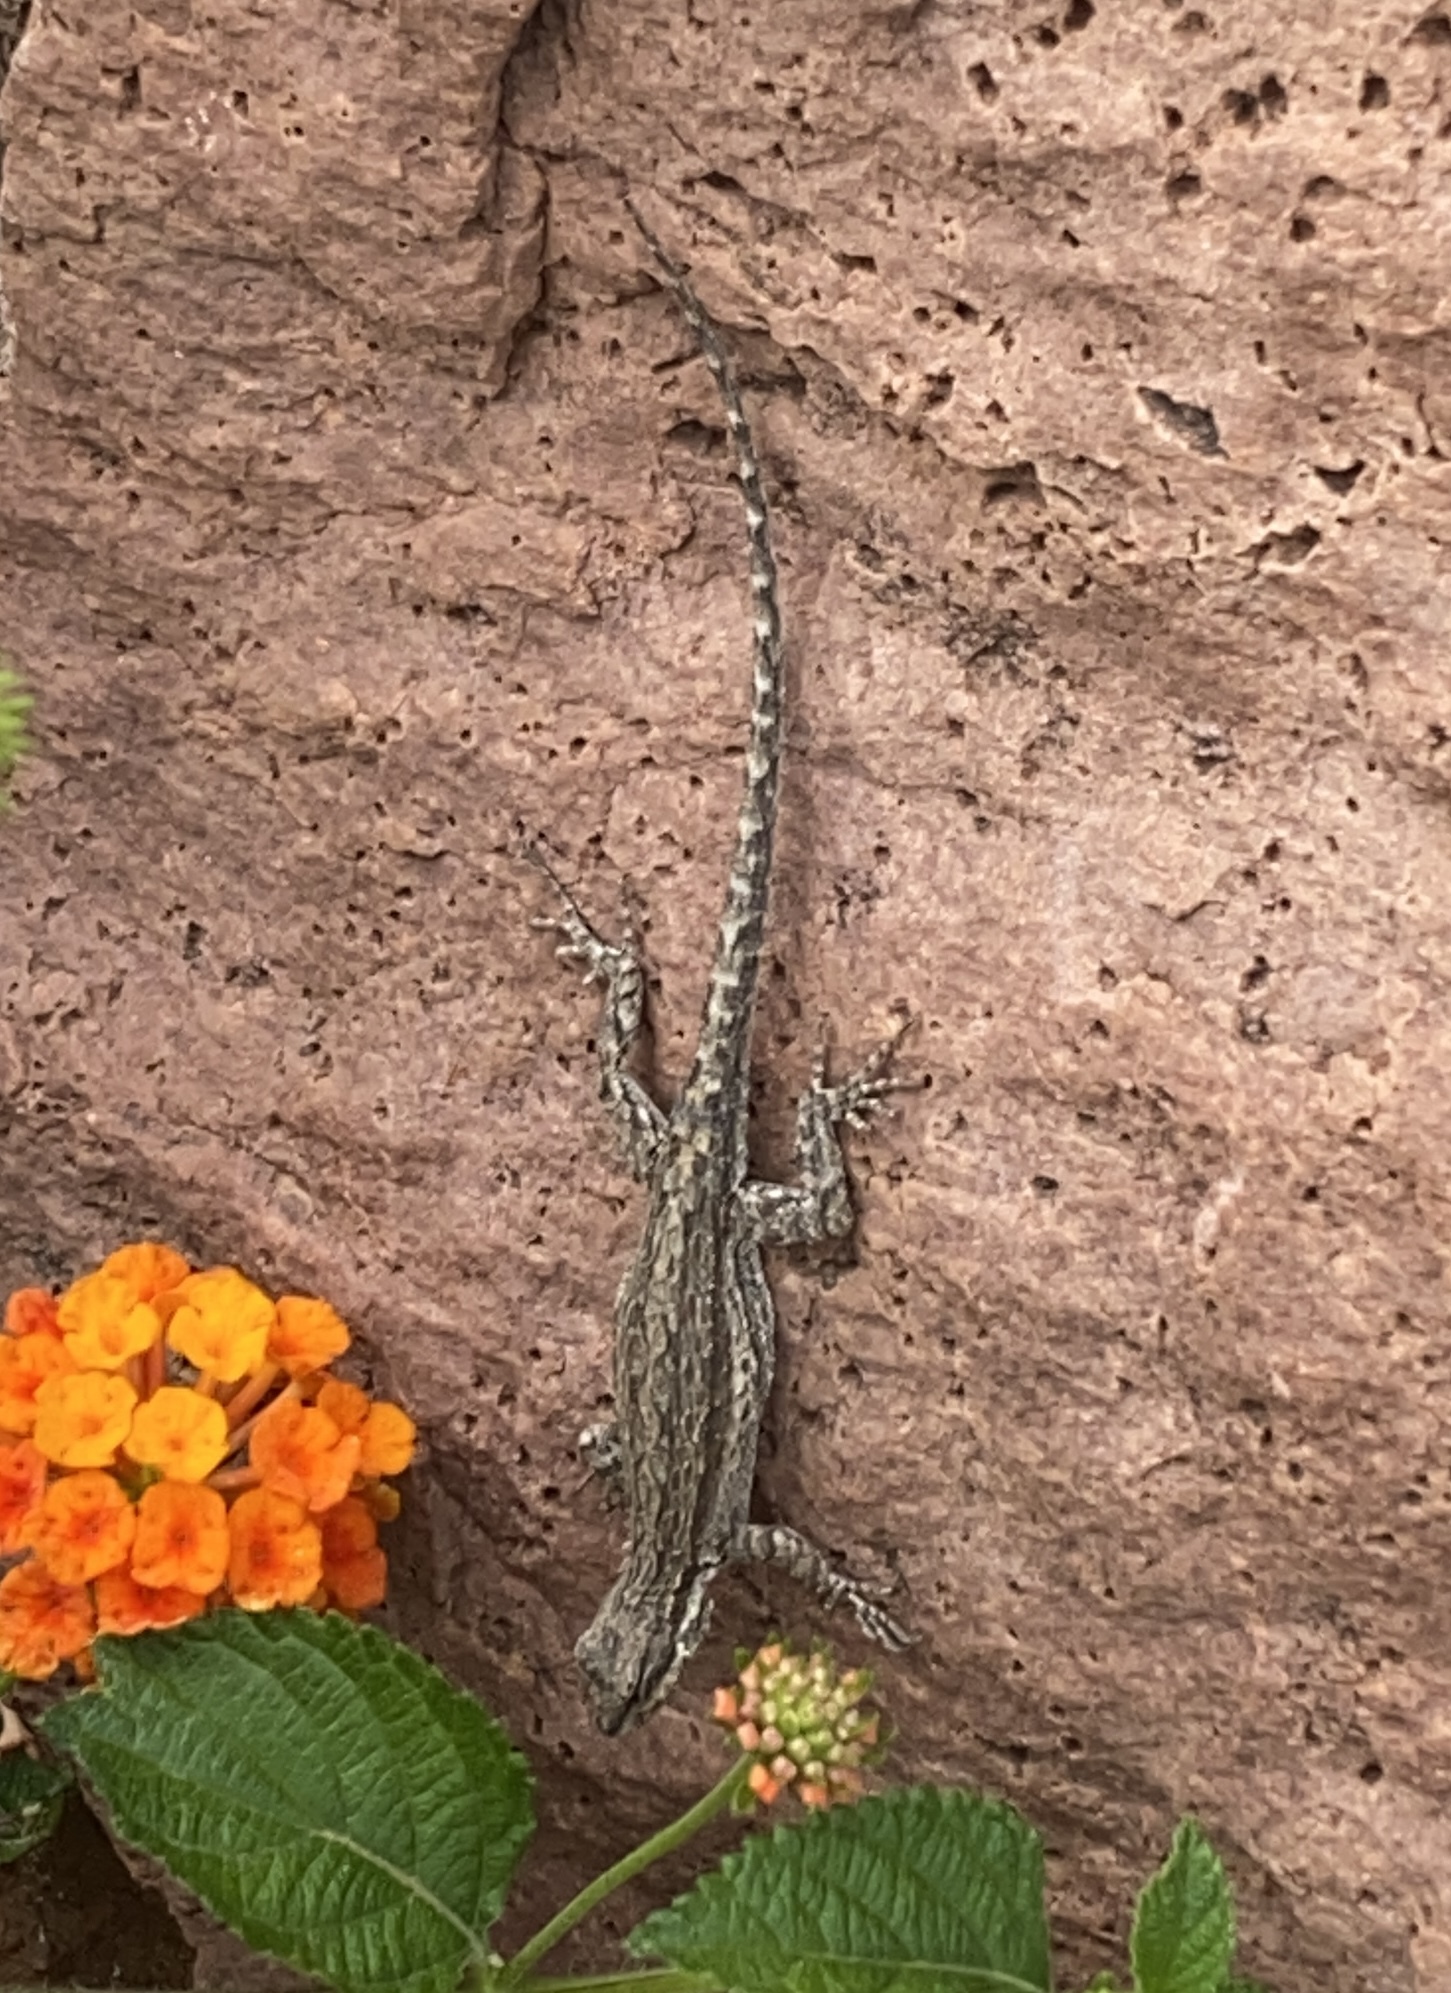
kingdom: Animalia
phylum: Chordata
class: Squamata
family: Phrynosomatidae
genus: Urosaurus
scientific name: Urosaurus ornatus
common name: Ornate tree lizard
